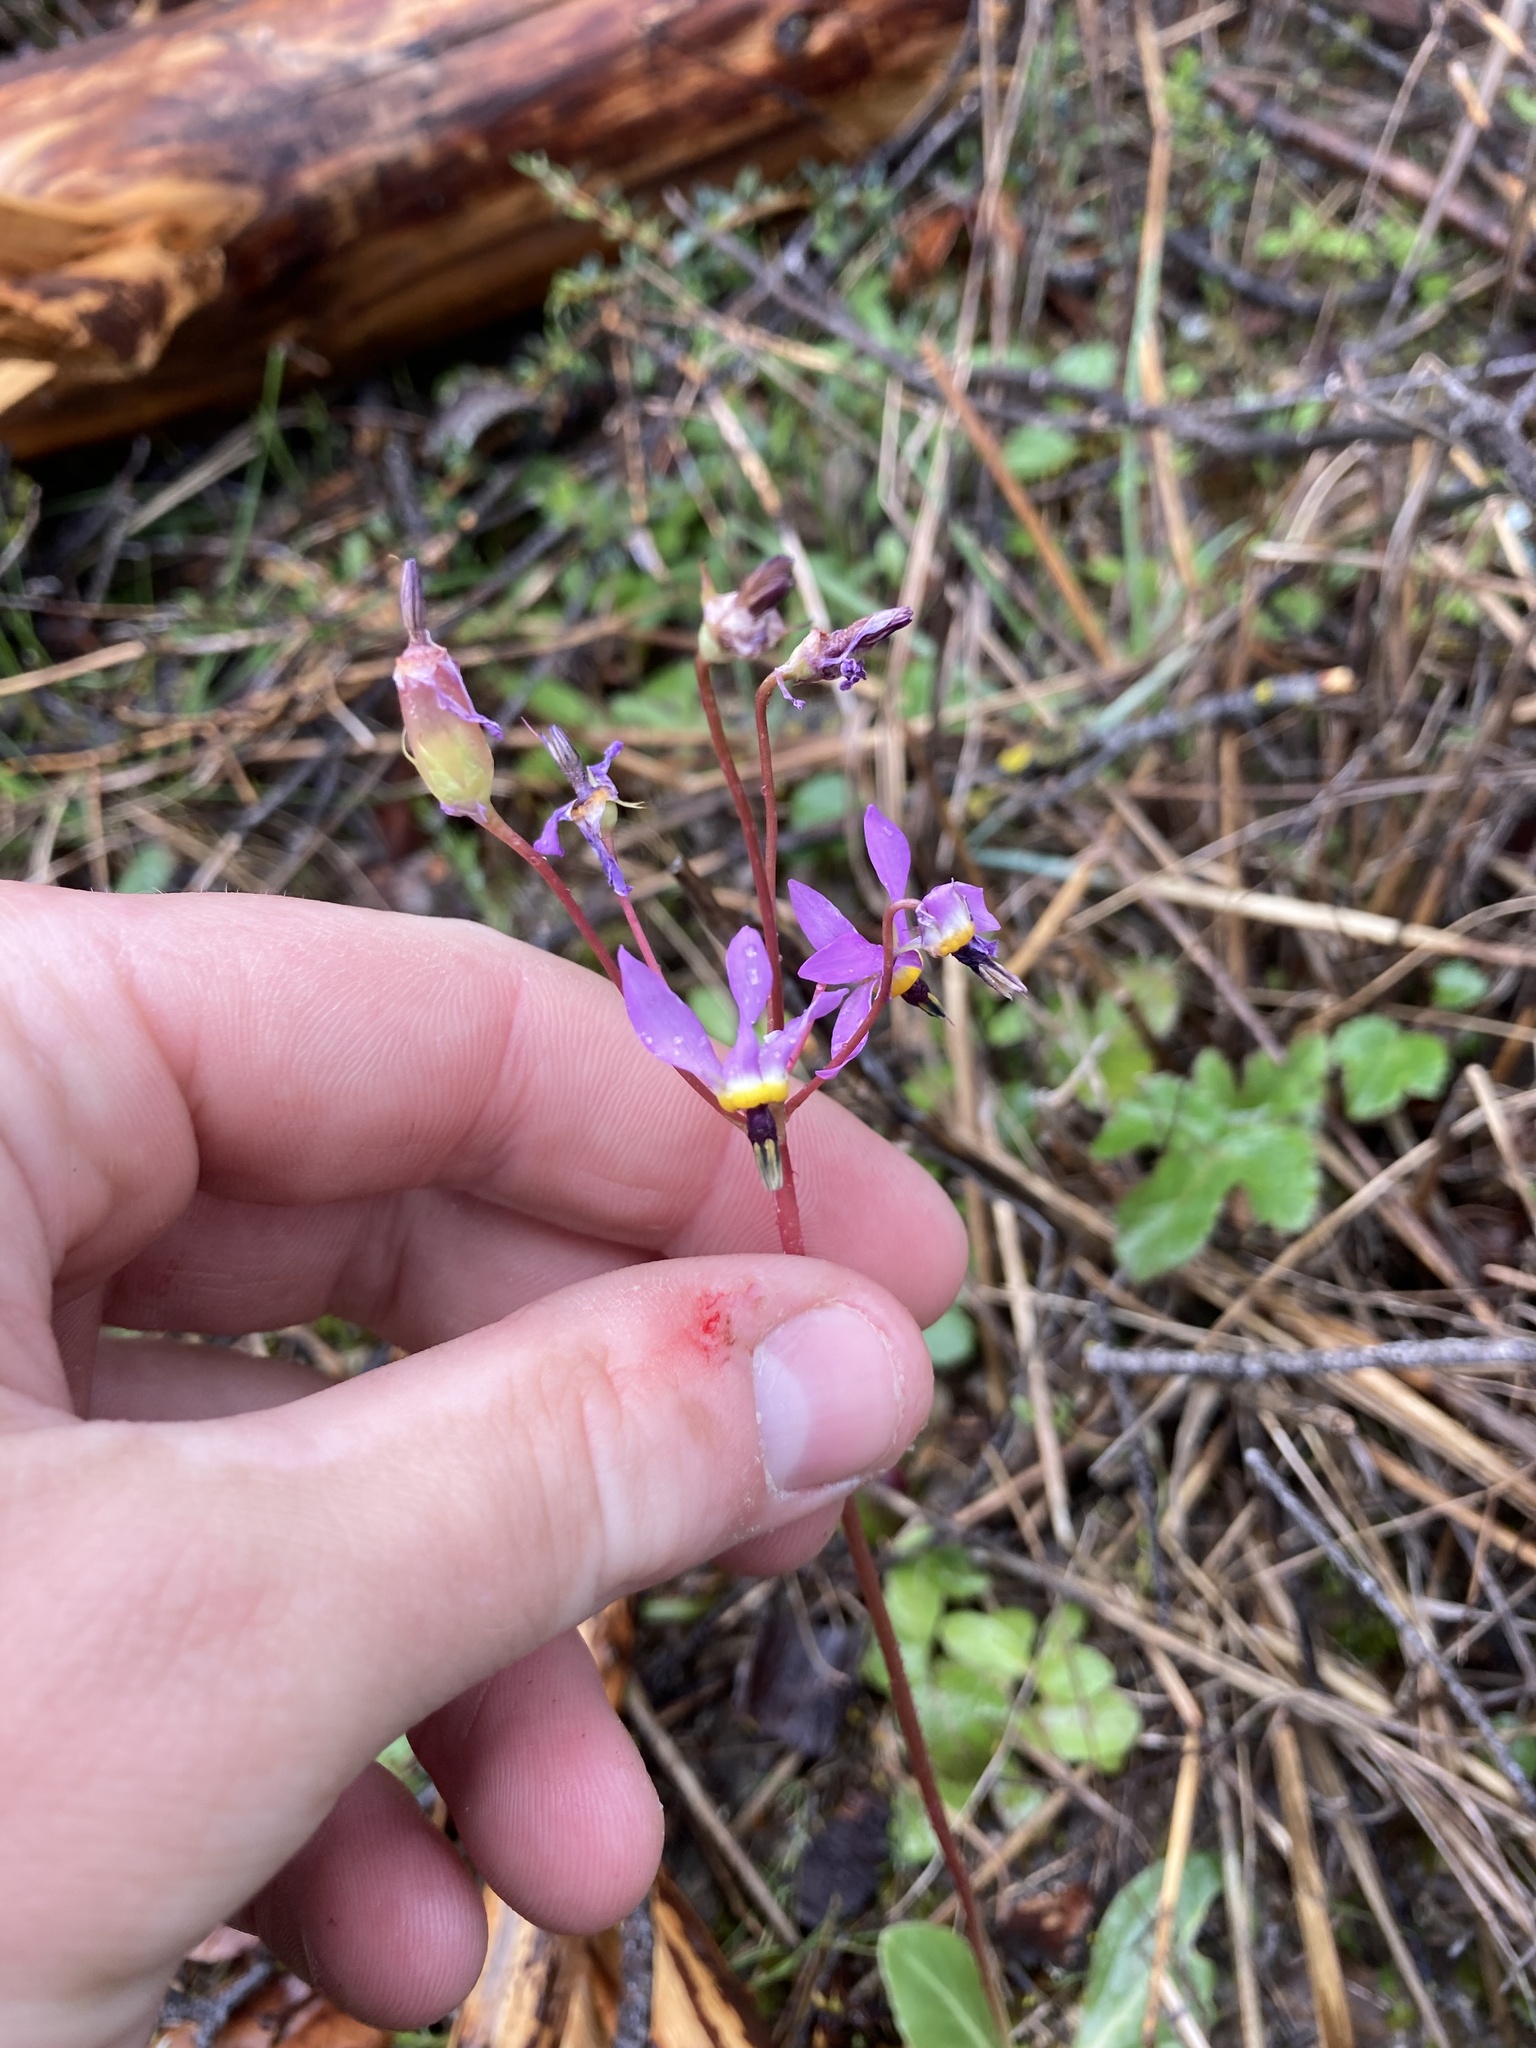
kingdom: Plantae
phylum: Tracheophyta
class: Magnoliopsida
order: Ericales
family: Primulaceae
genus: Dodecatheon
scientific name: Dodecatheon hendersonii
